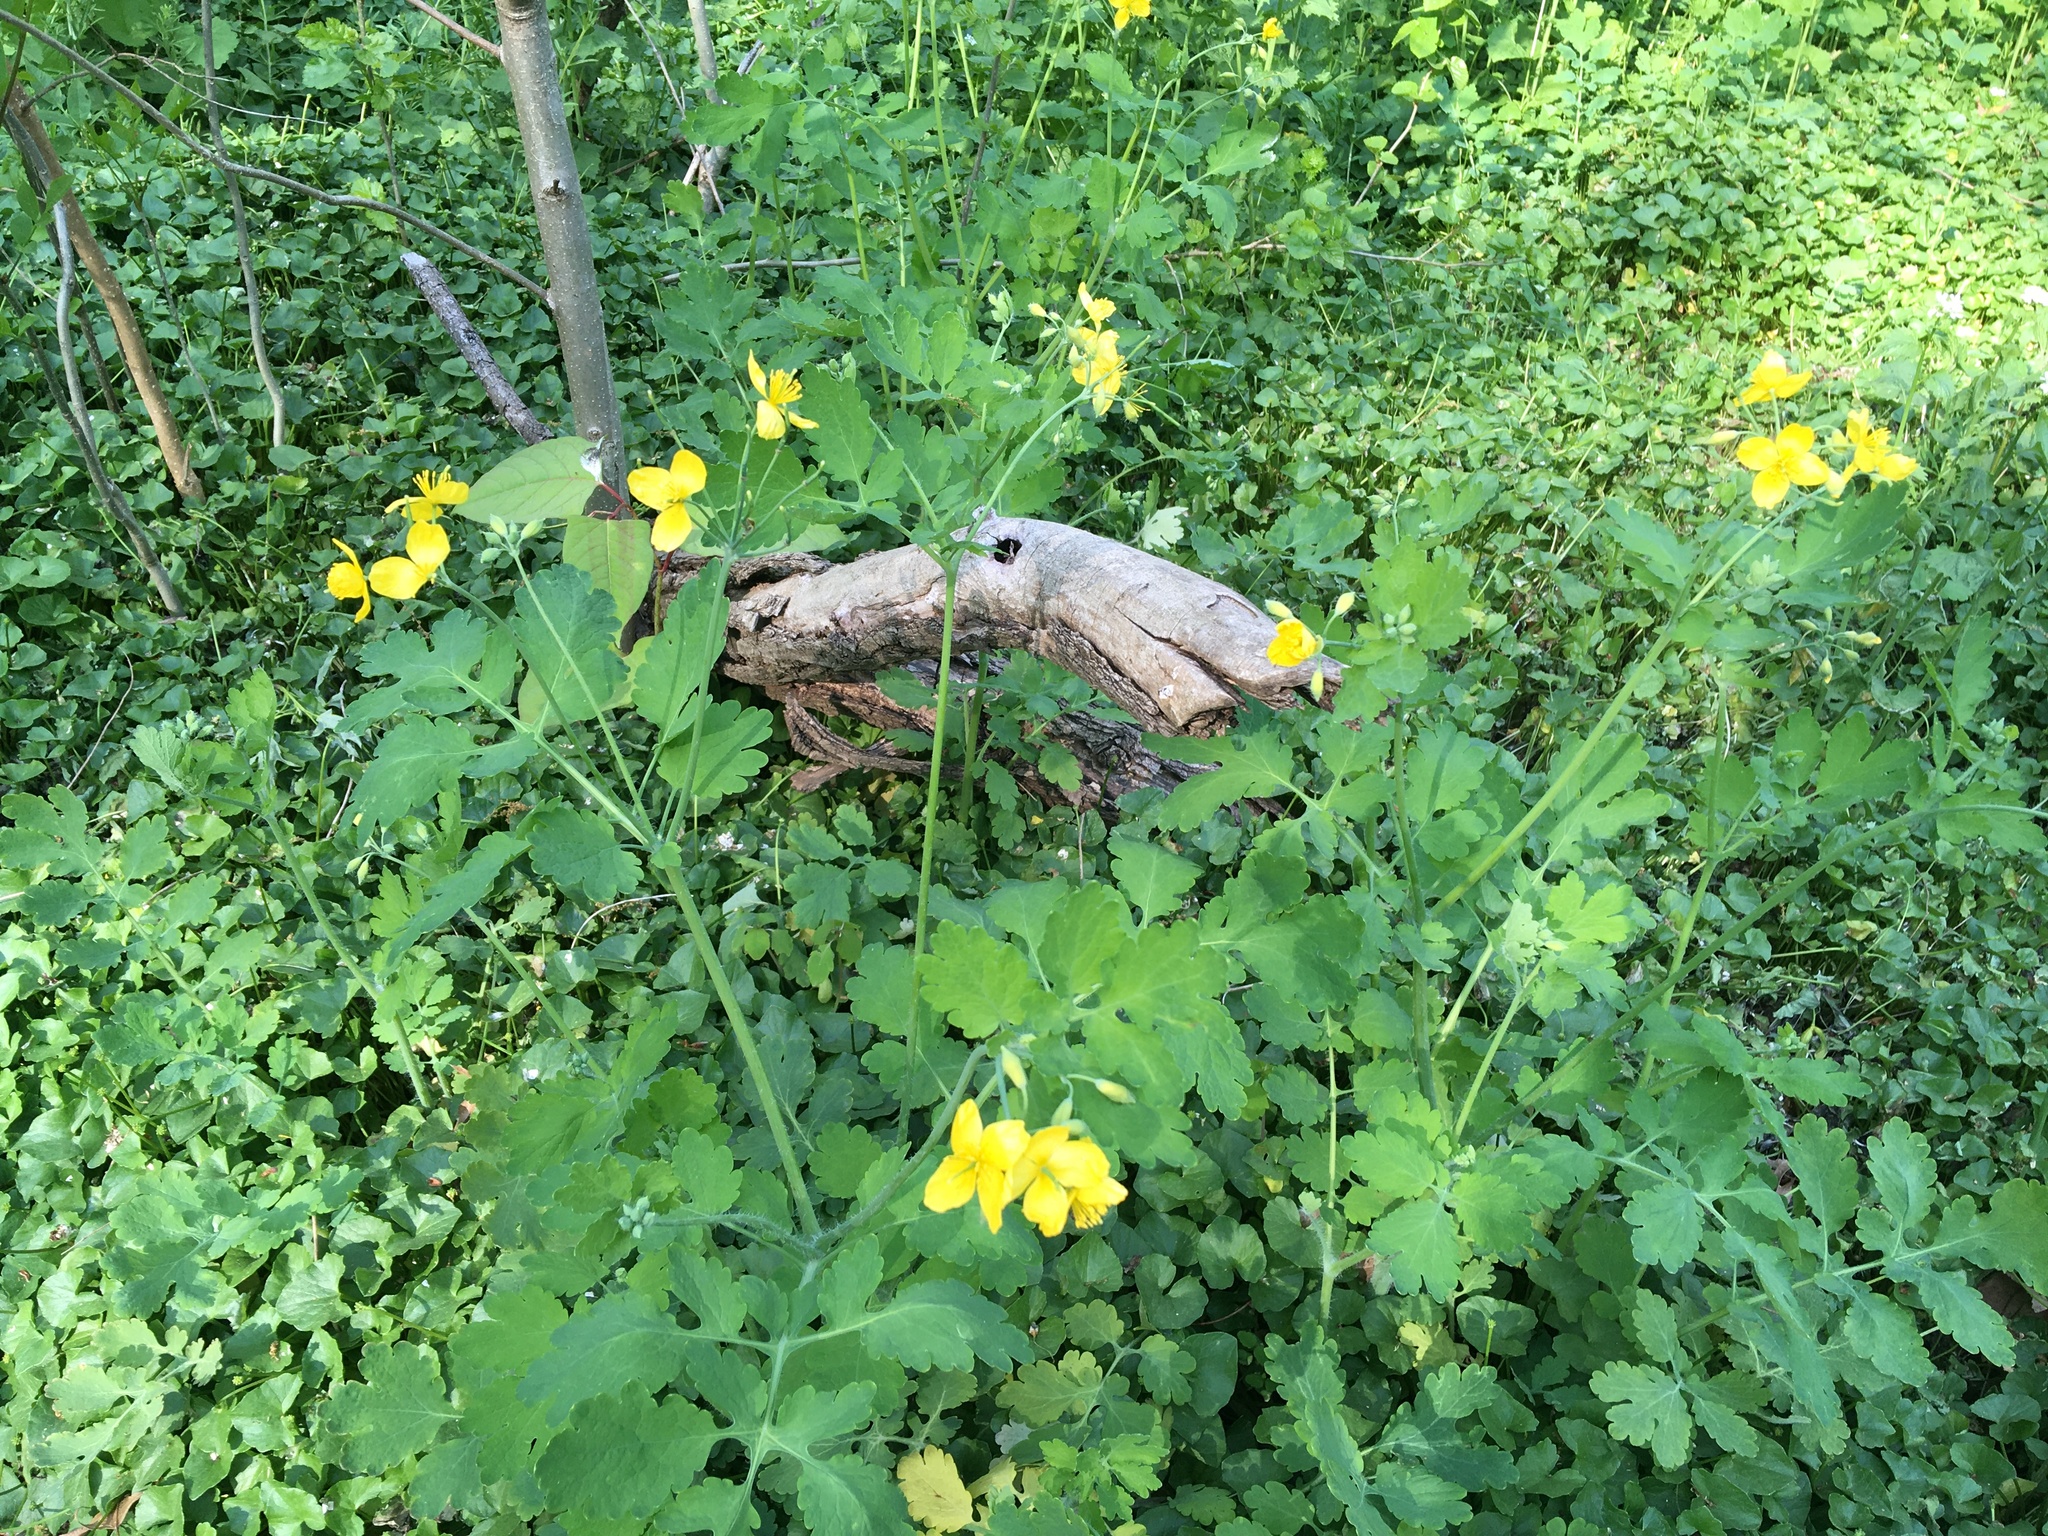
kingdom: Plantae
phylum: Tracheophyta
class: Magnoliopsida
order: Ranunculales
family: Papaveraceae
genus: Chelidonium
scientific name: Chelidonium majus
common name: Greater celandine
